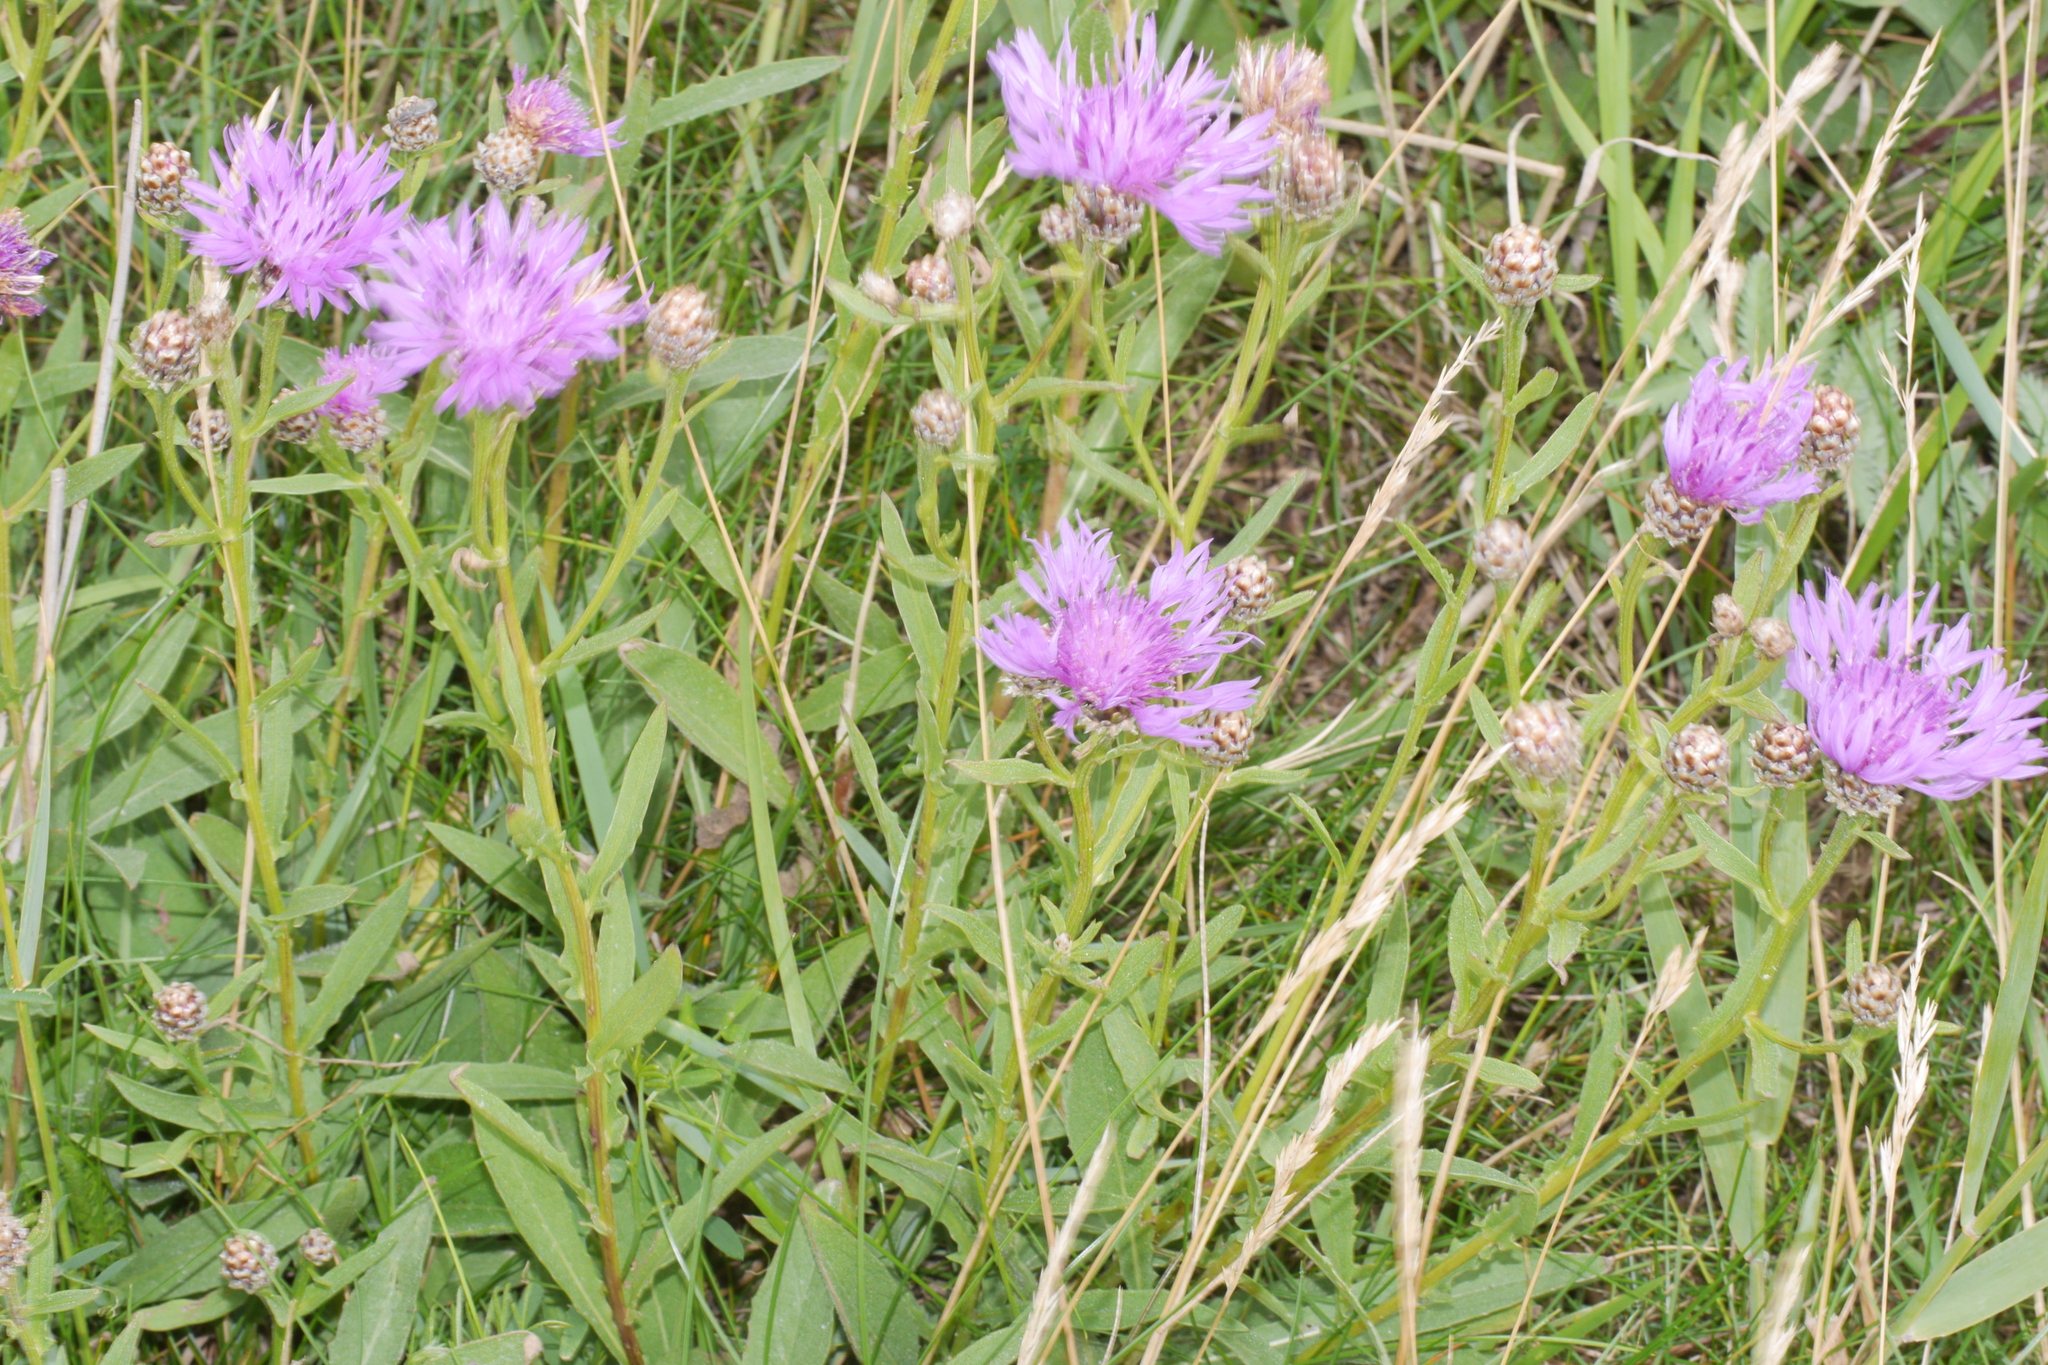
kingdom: Plantae
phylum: Tracheophyta
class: Magnoliopsida
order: Asterales
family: Asteraceae
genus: Centaurea
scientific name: Centaurea jacea
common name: Brown knapweed
